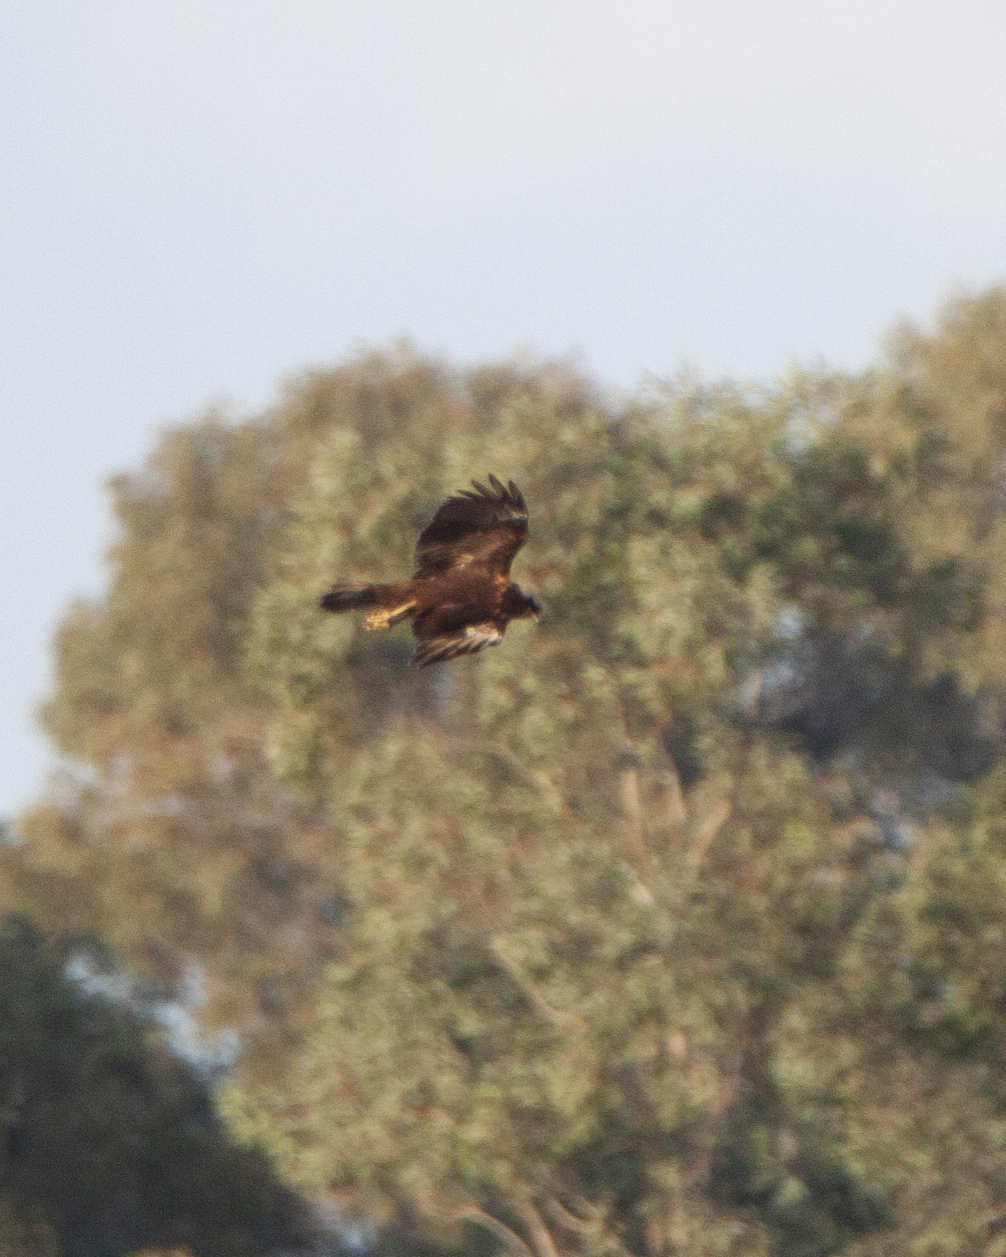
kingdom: Animalia
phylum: Chordata
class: Aves
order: Accipitriformes
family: Accipitridae
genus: Circus
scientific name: Circus aeruginosus
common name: Western marsh harrier
